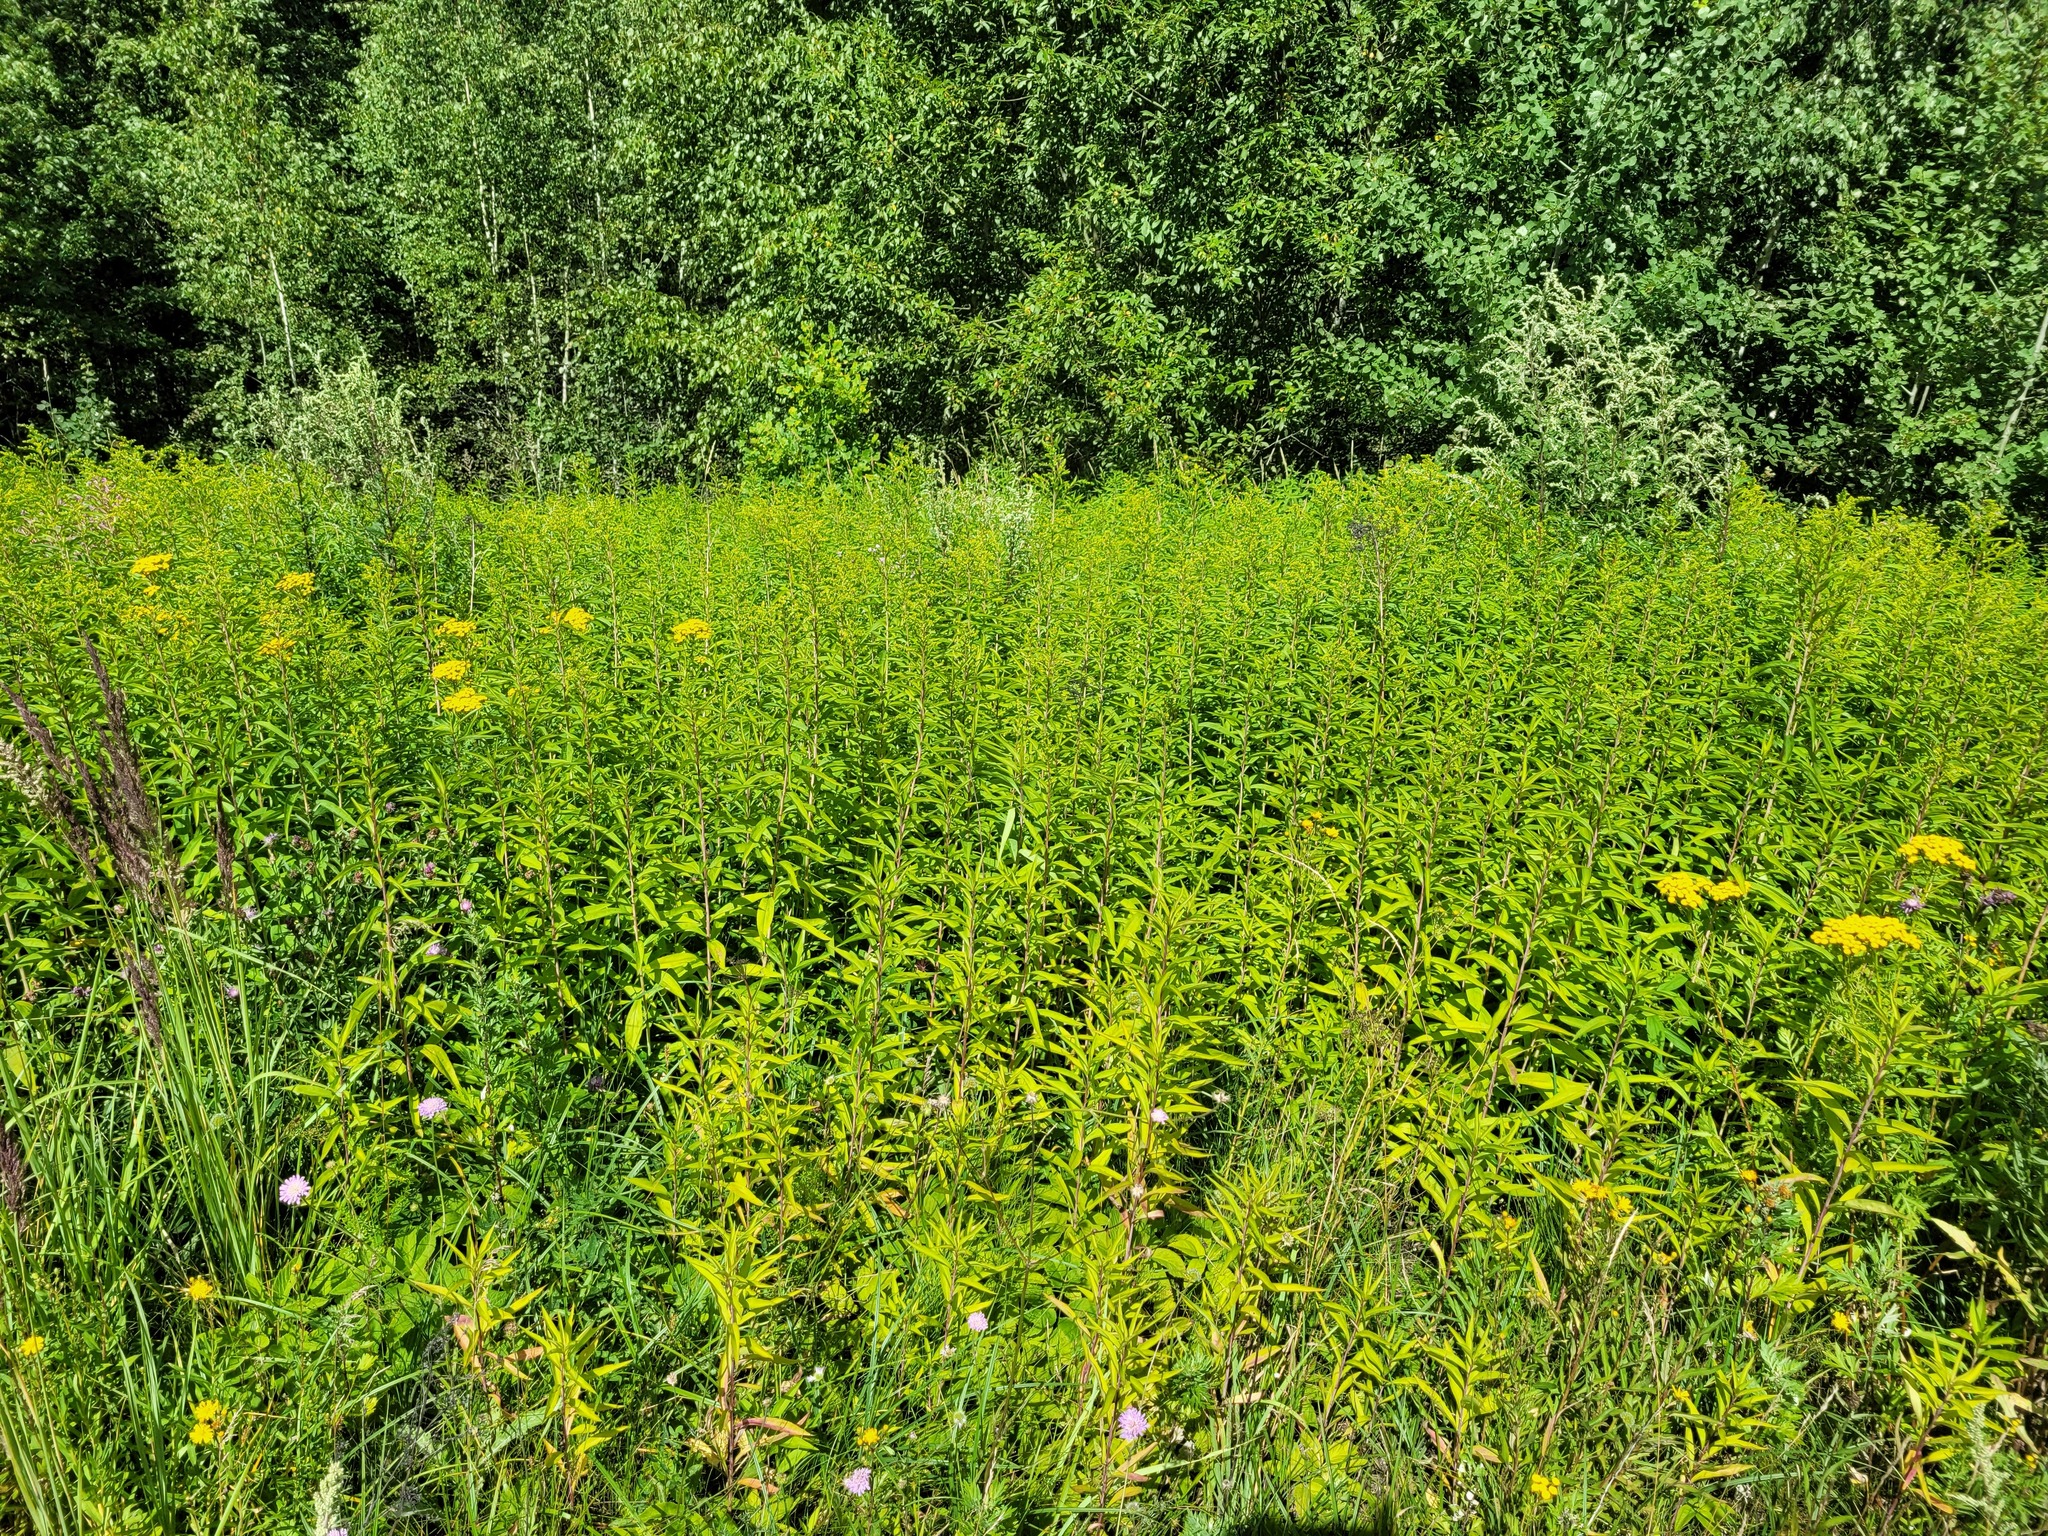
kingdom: Plantae
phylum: Tracheophyta
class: Magnoliopsida
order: Asterales
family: Asteraceae
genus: Solidago
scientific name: Solidago gigantea
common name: Giant goldenrod
